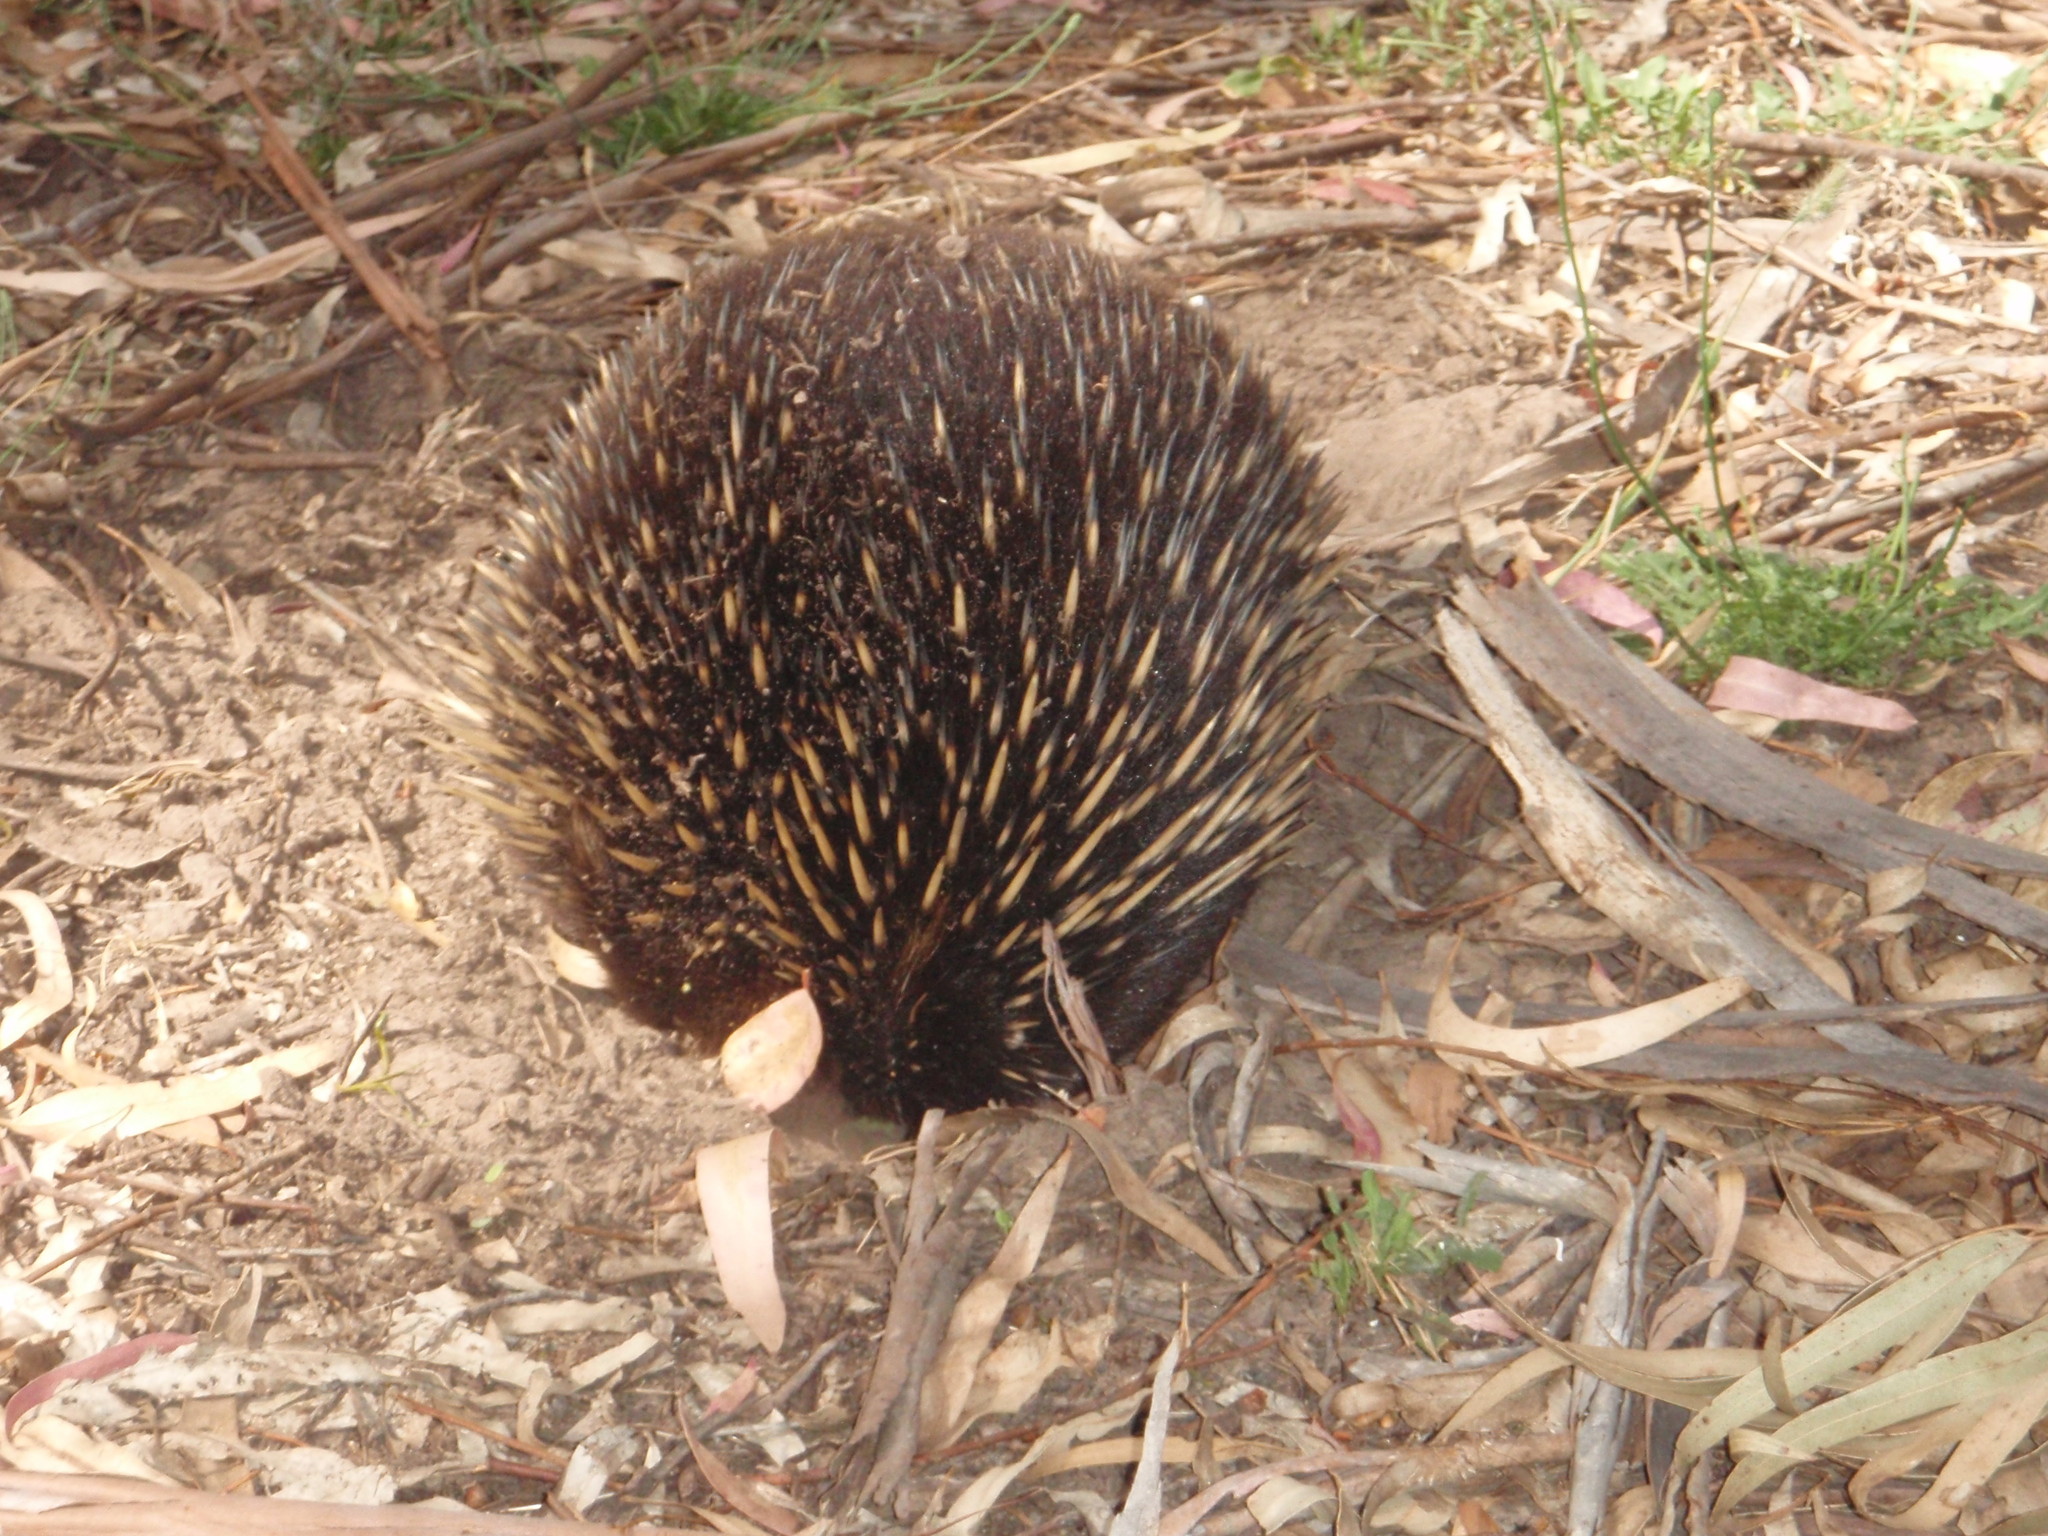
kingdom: Animalia
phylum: Chordata
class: Mammalia
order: Monotremata
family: Tachyglossidae
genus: Tachyglossus
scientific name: Tachyglossus aculeatus
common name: Short-beaked echidna
